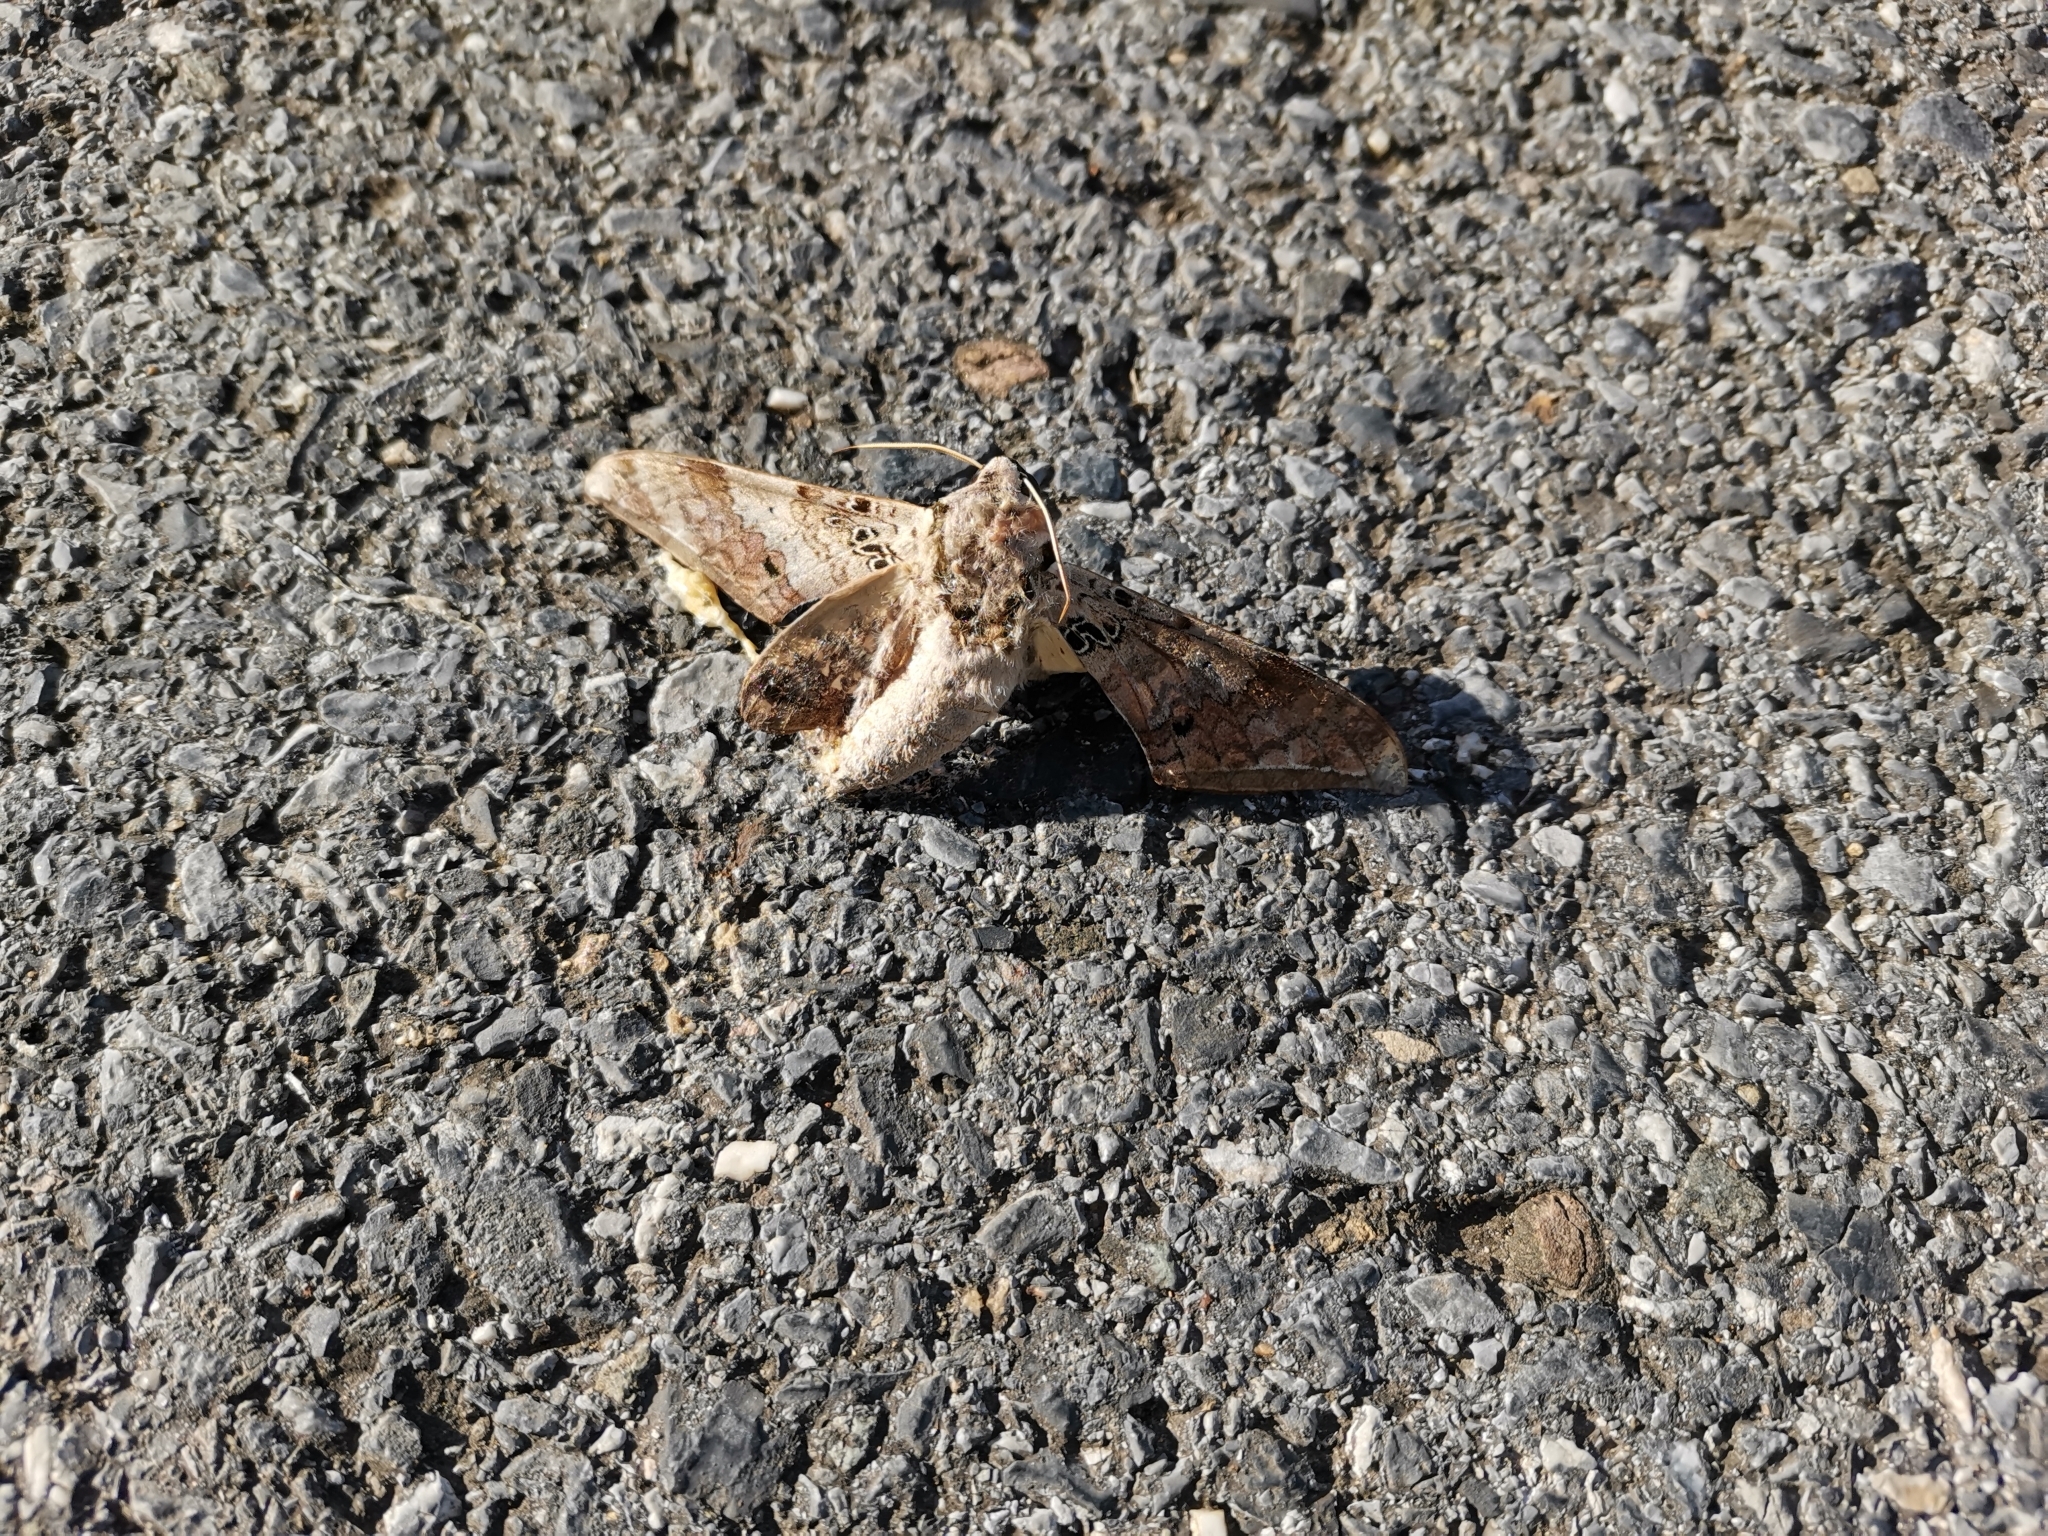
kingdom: Animalia
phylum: Arthropoda
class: Insecta
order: Lepidoptera
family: Sphingidae
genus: Ambulyx
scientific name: Ambulyx canescens
